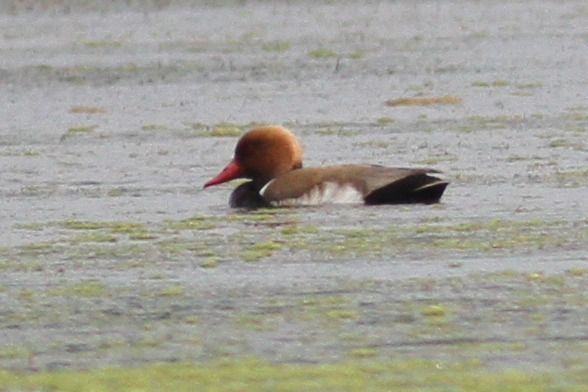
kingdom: Animalia
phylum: Chordata
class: Aves
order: Anseriformes
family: Anatidae
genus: Netta
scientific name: Netta rufina
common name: Red-crested pochard
